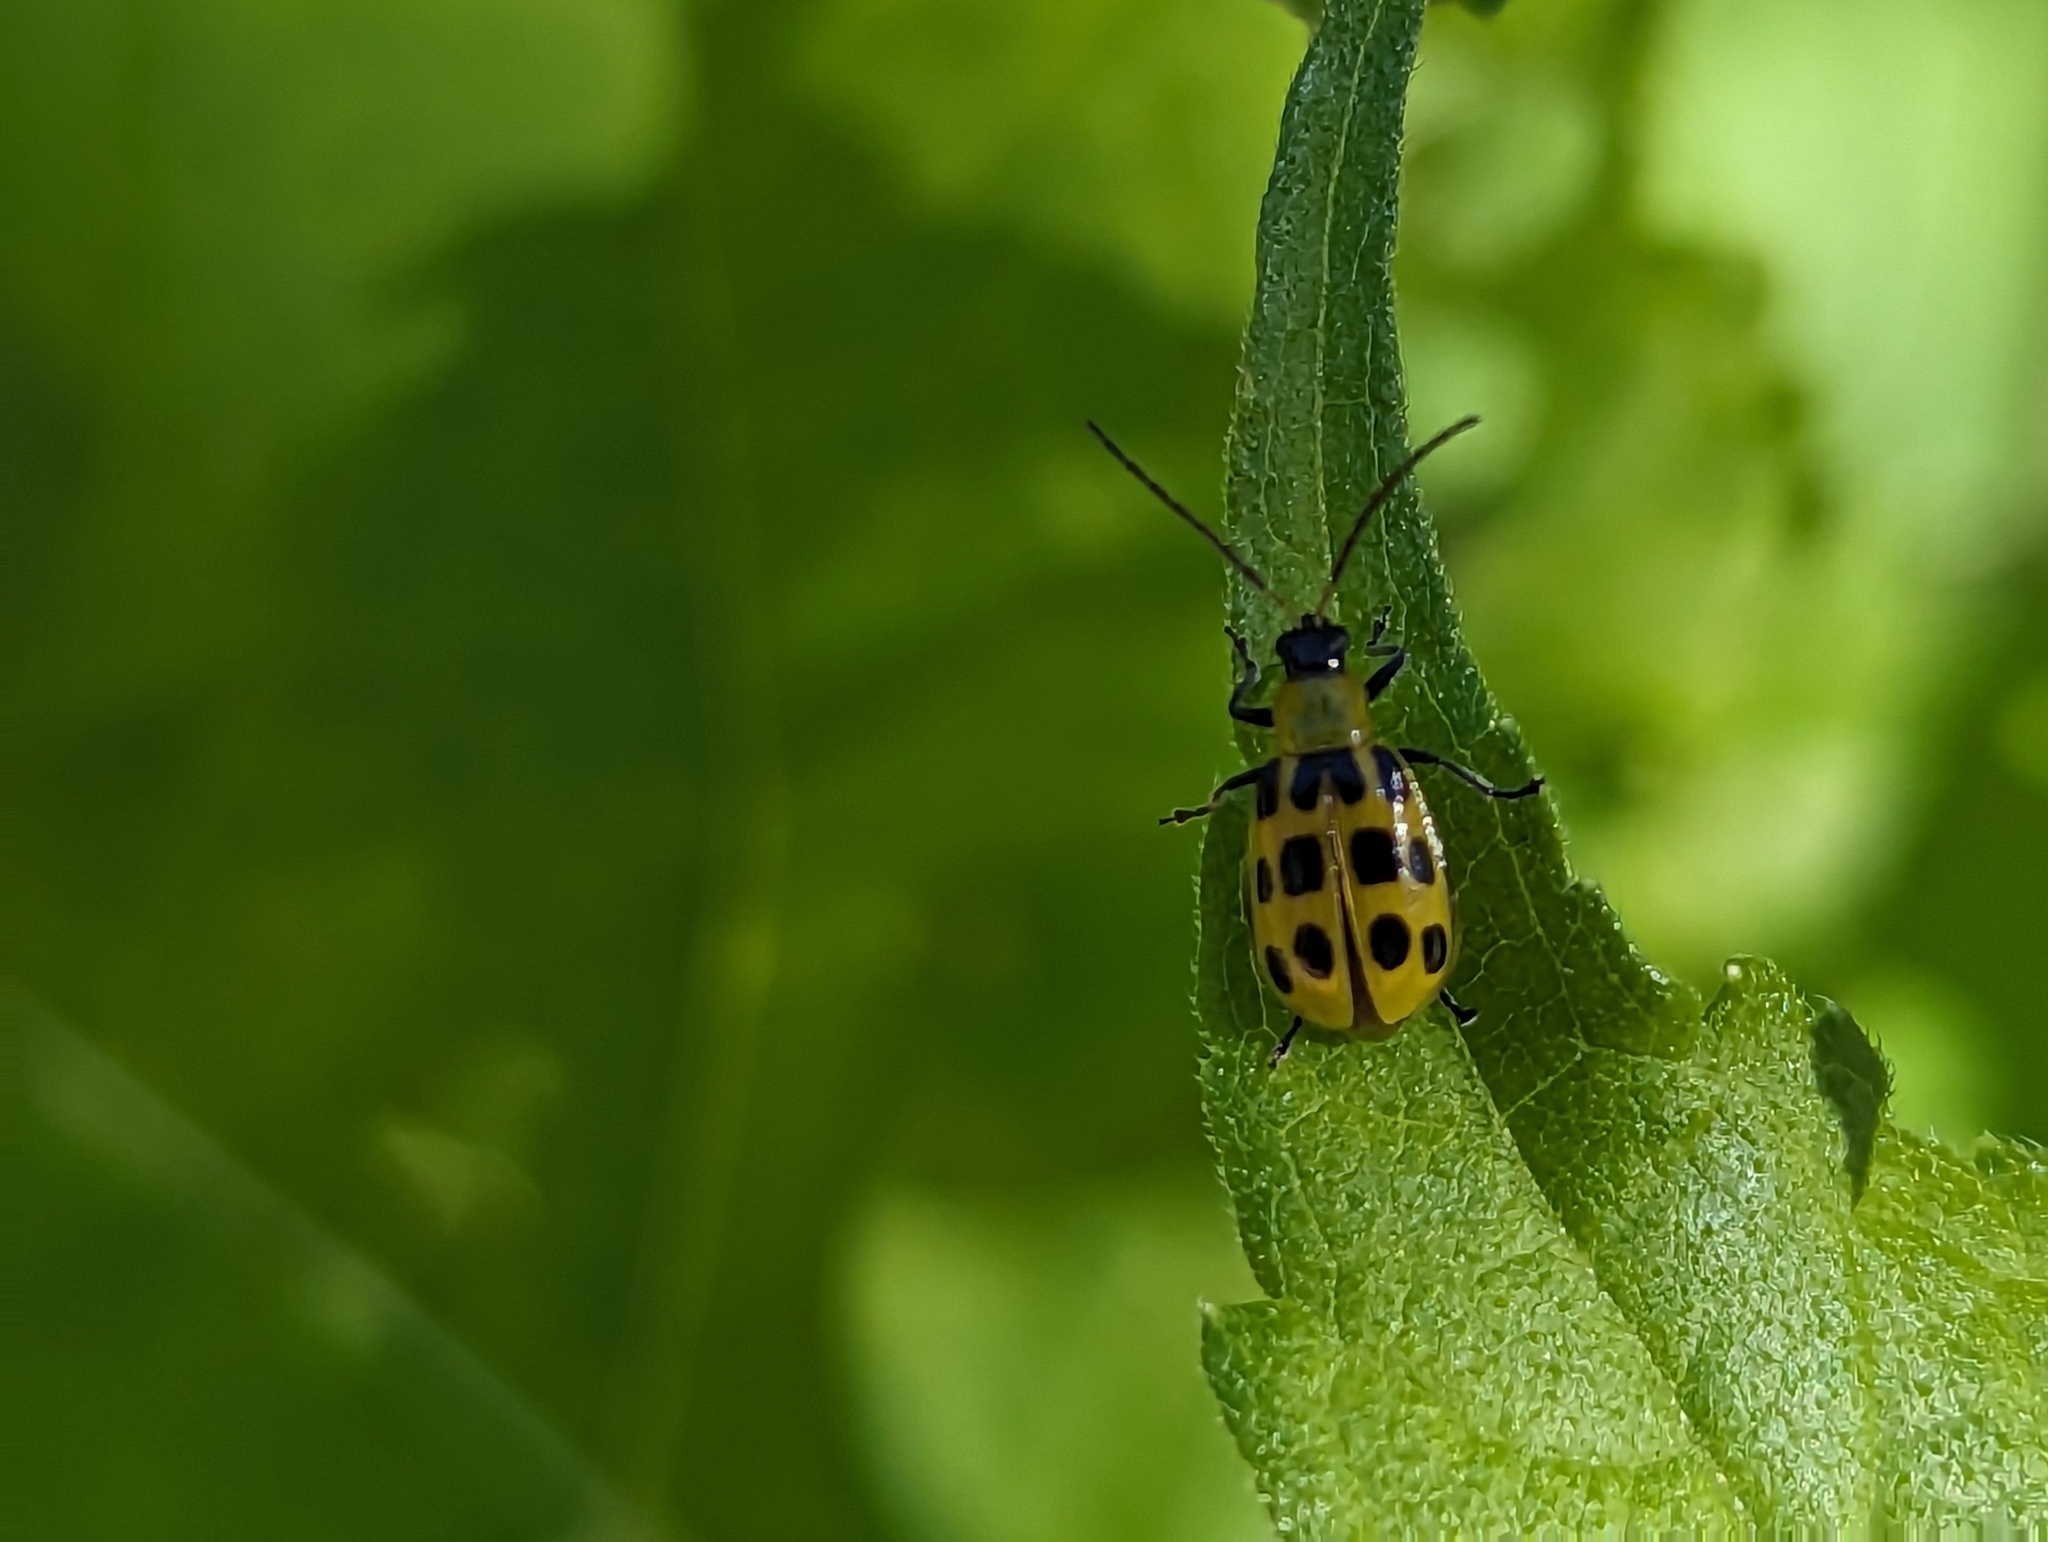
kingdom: Animalia
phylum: Arthropoda
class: Insecta
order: Coleoptera
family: Chrysomelidae
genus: Diabrotica
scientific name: Diabrotica undecimpunctata
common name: Spotted cucumber beetle
